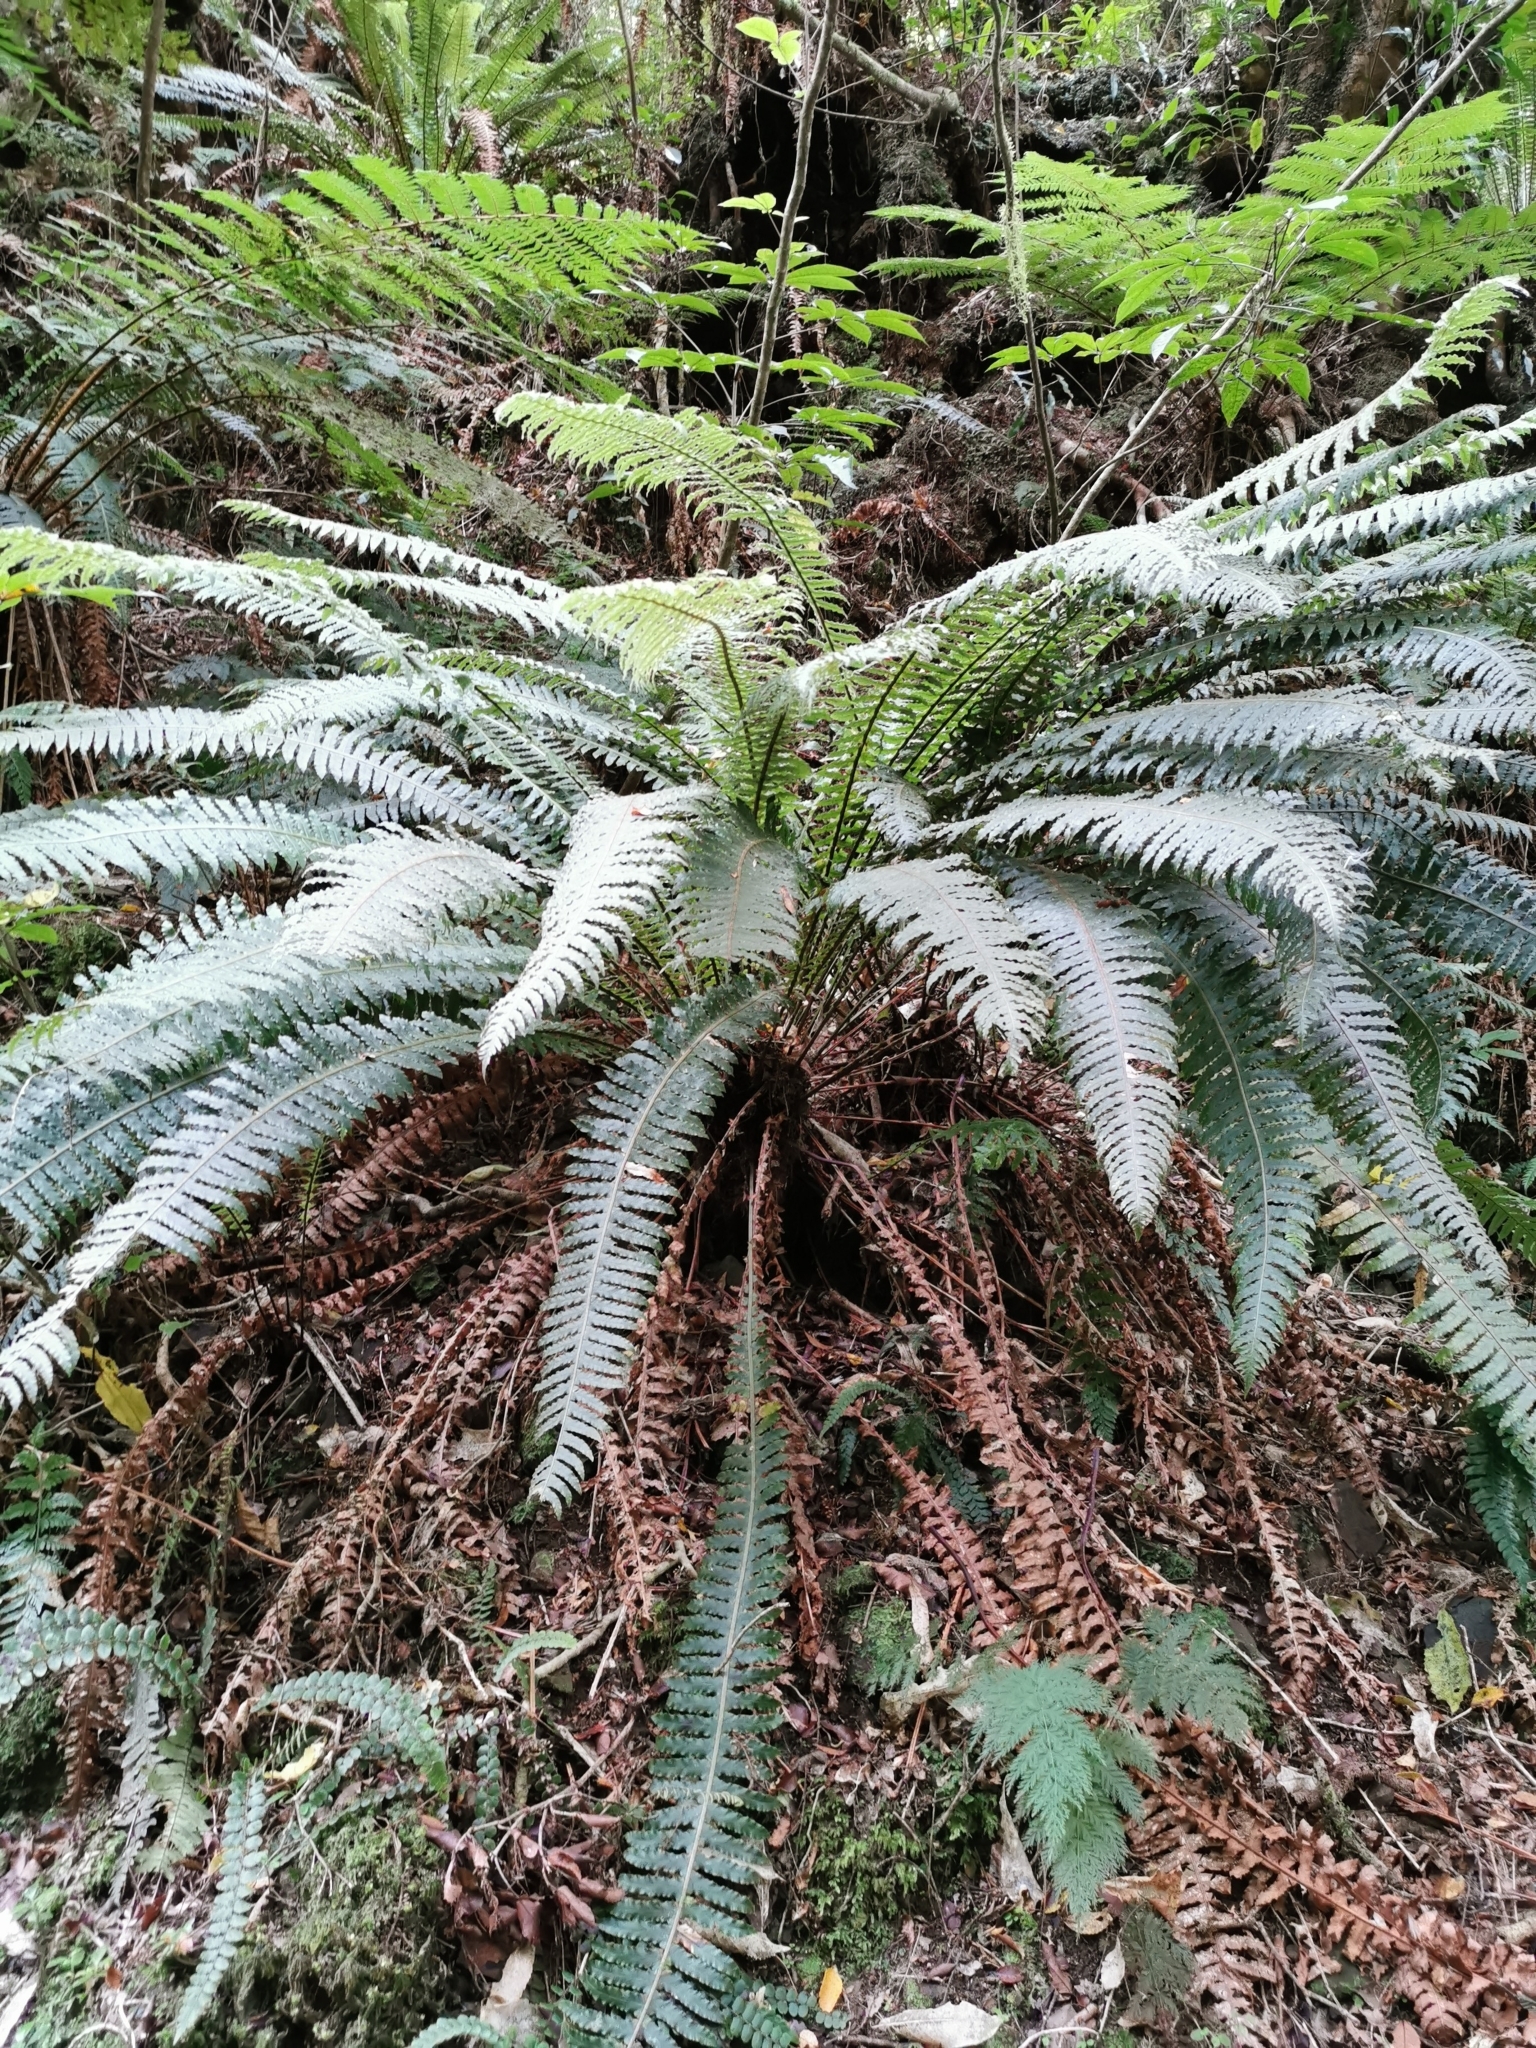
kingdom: Plantae
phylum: Tracheophyta
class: Polypodiopsida
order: Polypodiales
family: Blechnaceae
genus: Lomaria
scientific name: Lomaria discolor
